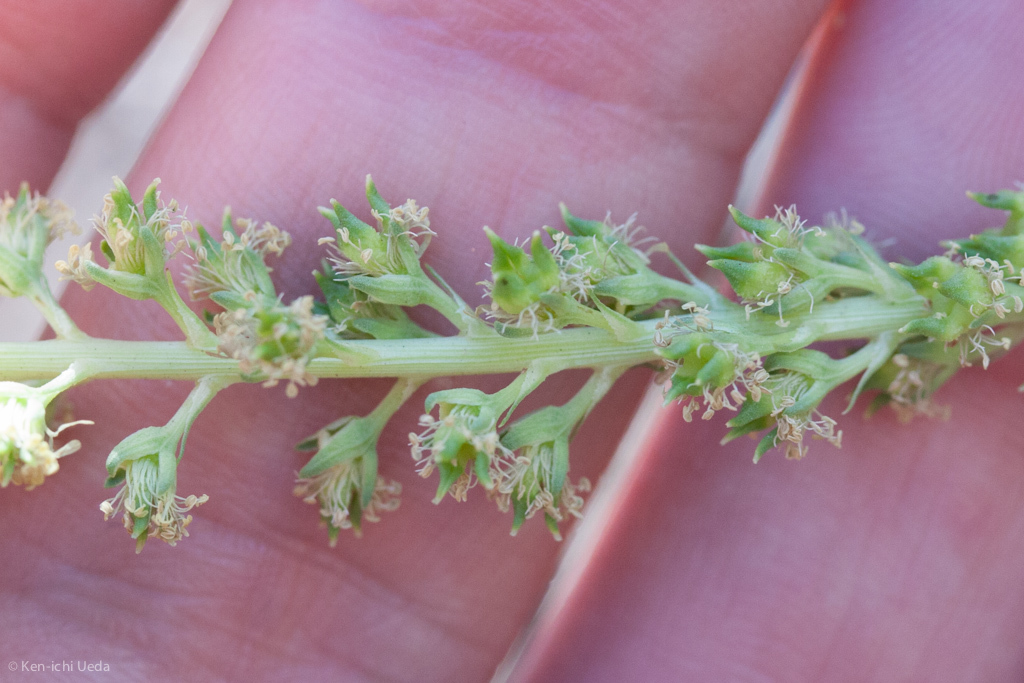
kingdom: Plantae
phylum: Tracheophyta
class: Magnoliopsida
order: Brassicales
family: Resedaceae
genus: Reseda
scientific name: Reseda luteola
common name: Weld
